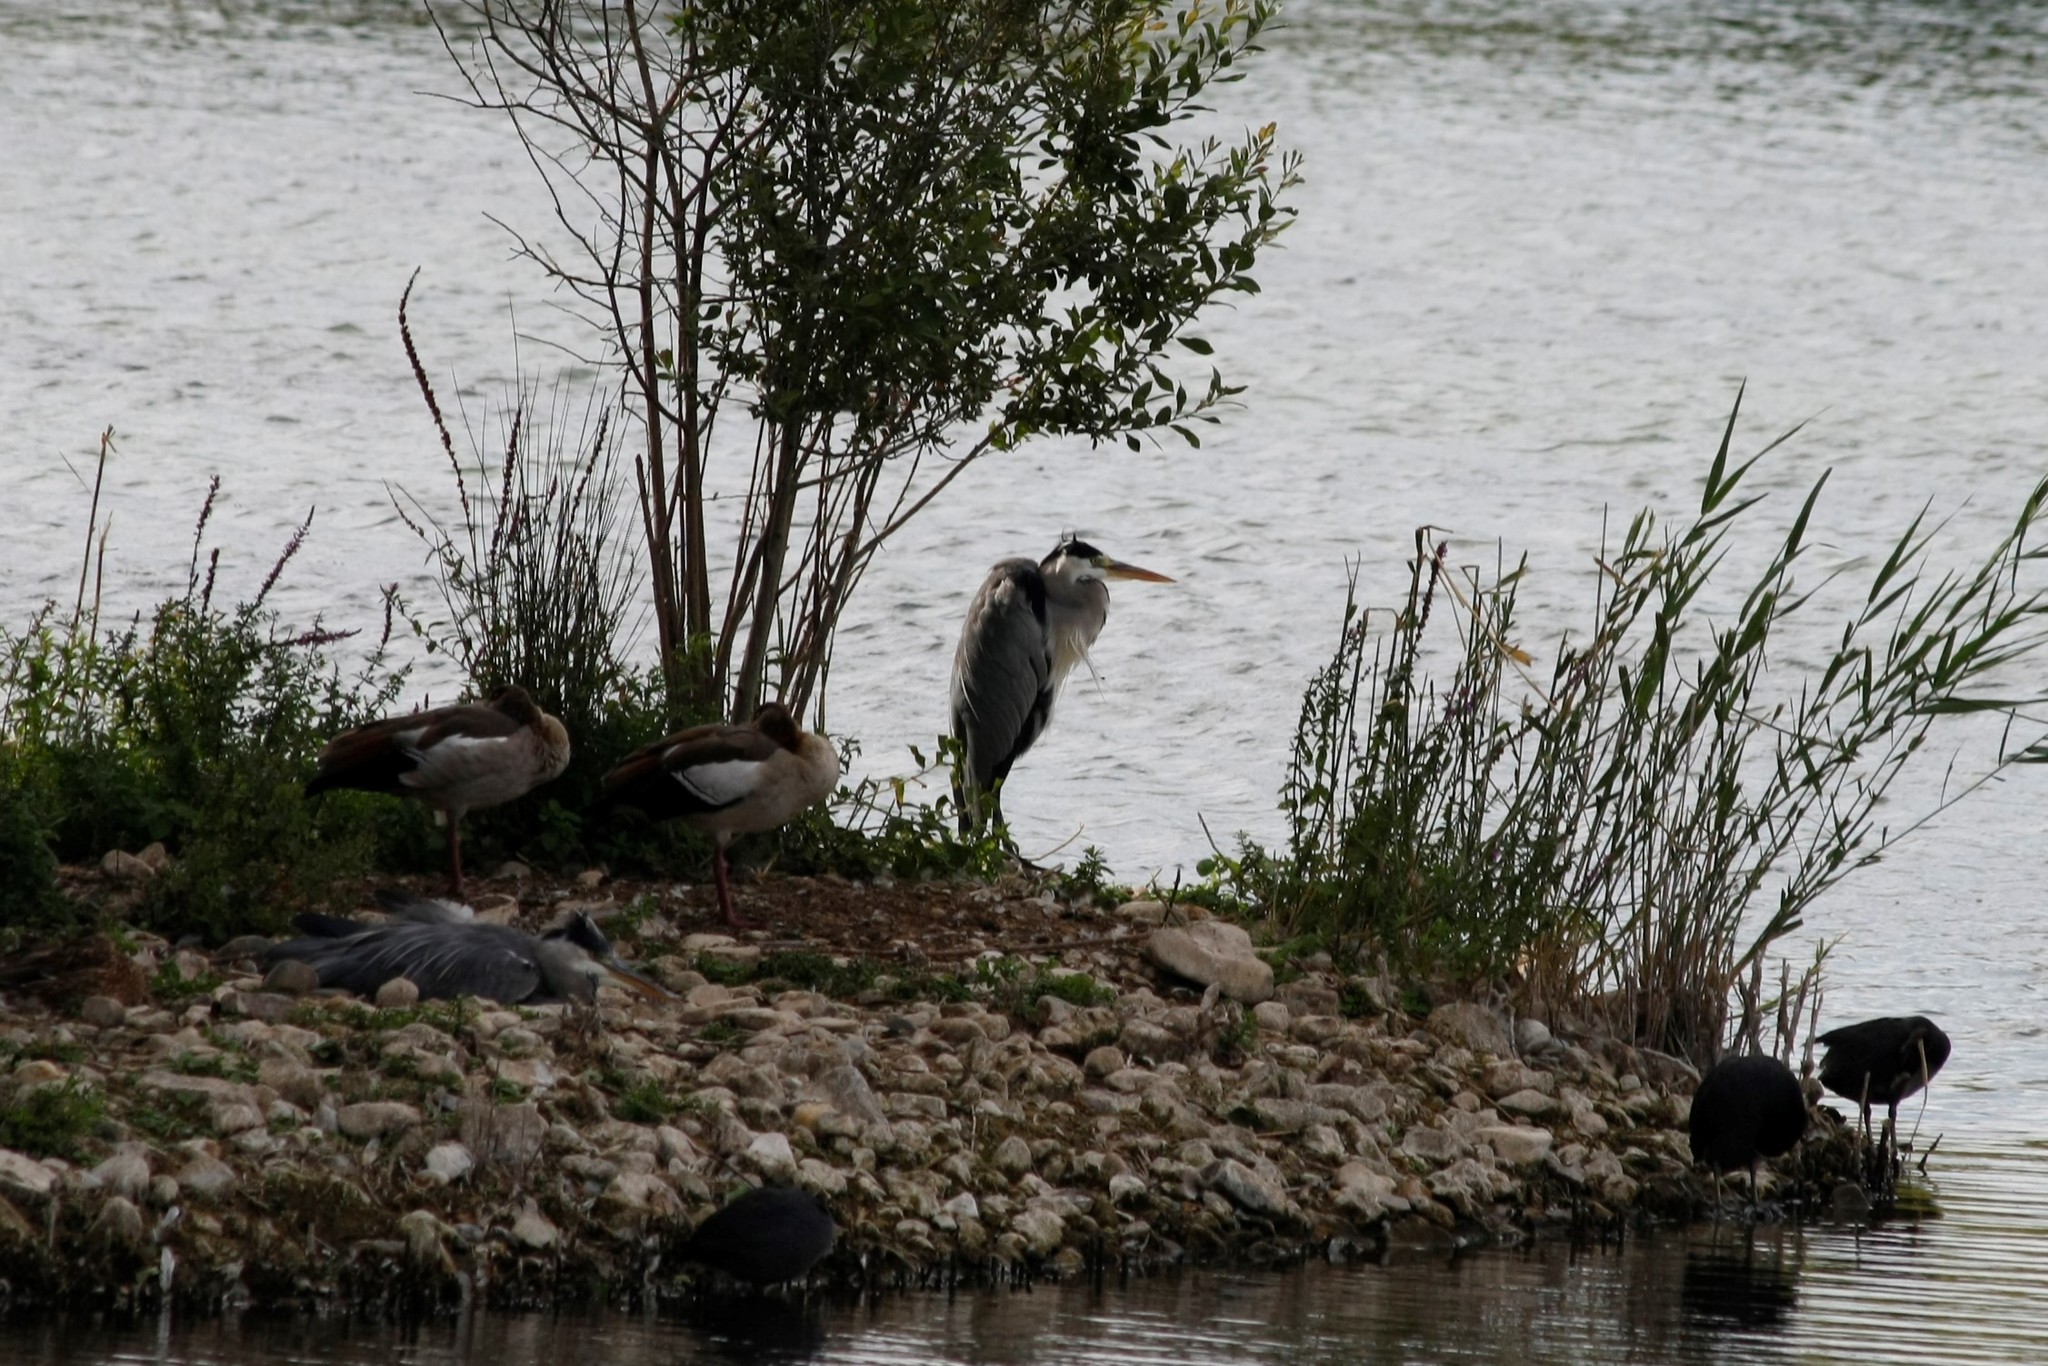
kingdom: Animalia
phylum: Chordata
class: Aves
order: Pelecaniformes
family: Ardeidae
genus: Ardea
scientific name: Ardea cinerea
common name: Grey heron
